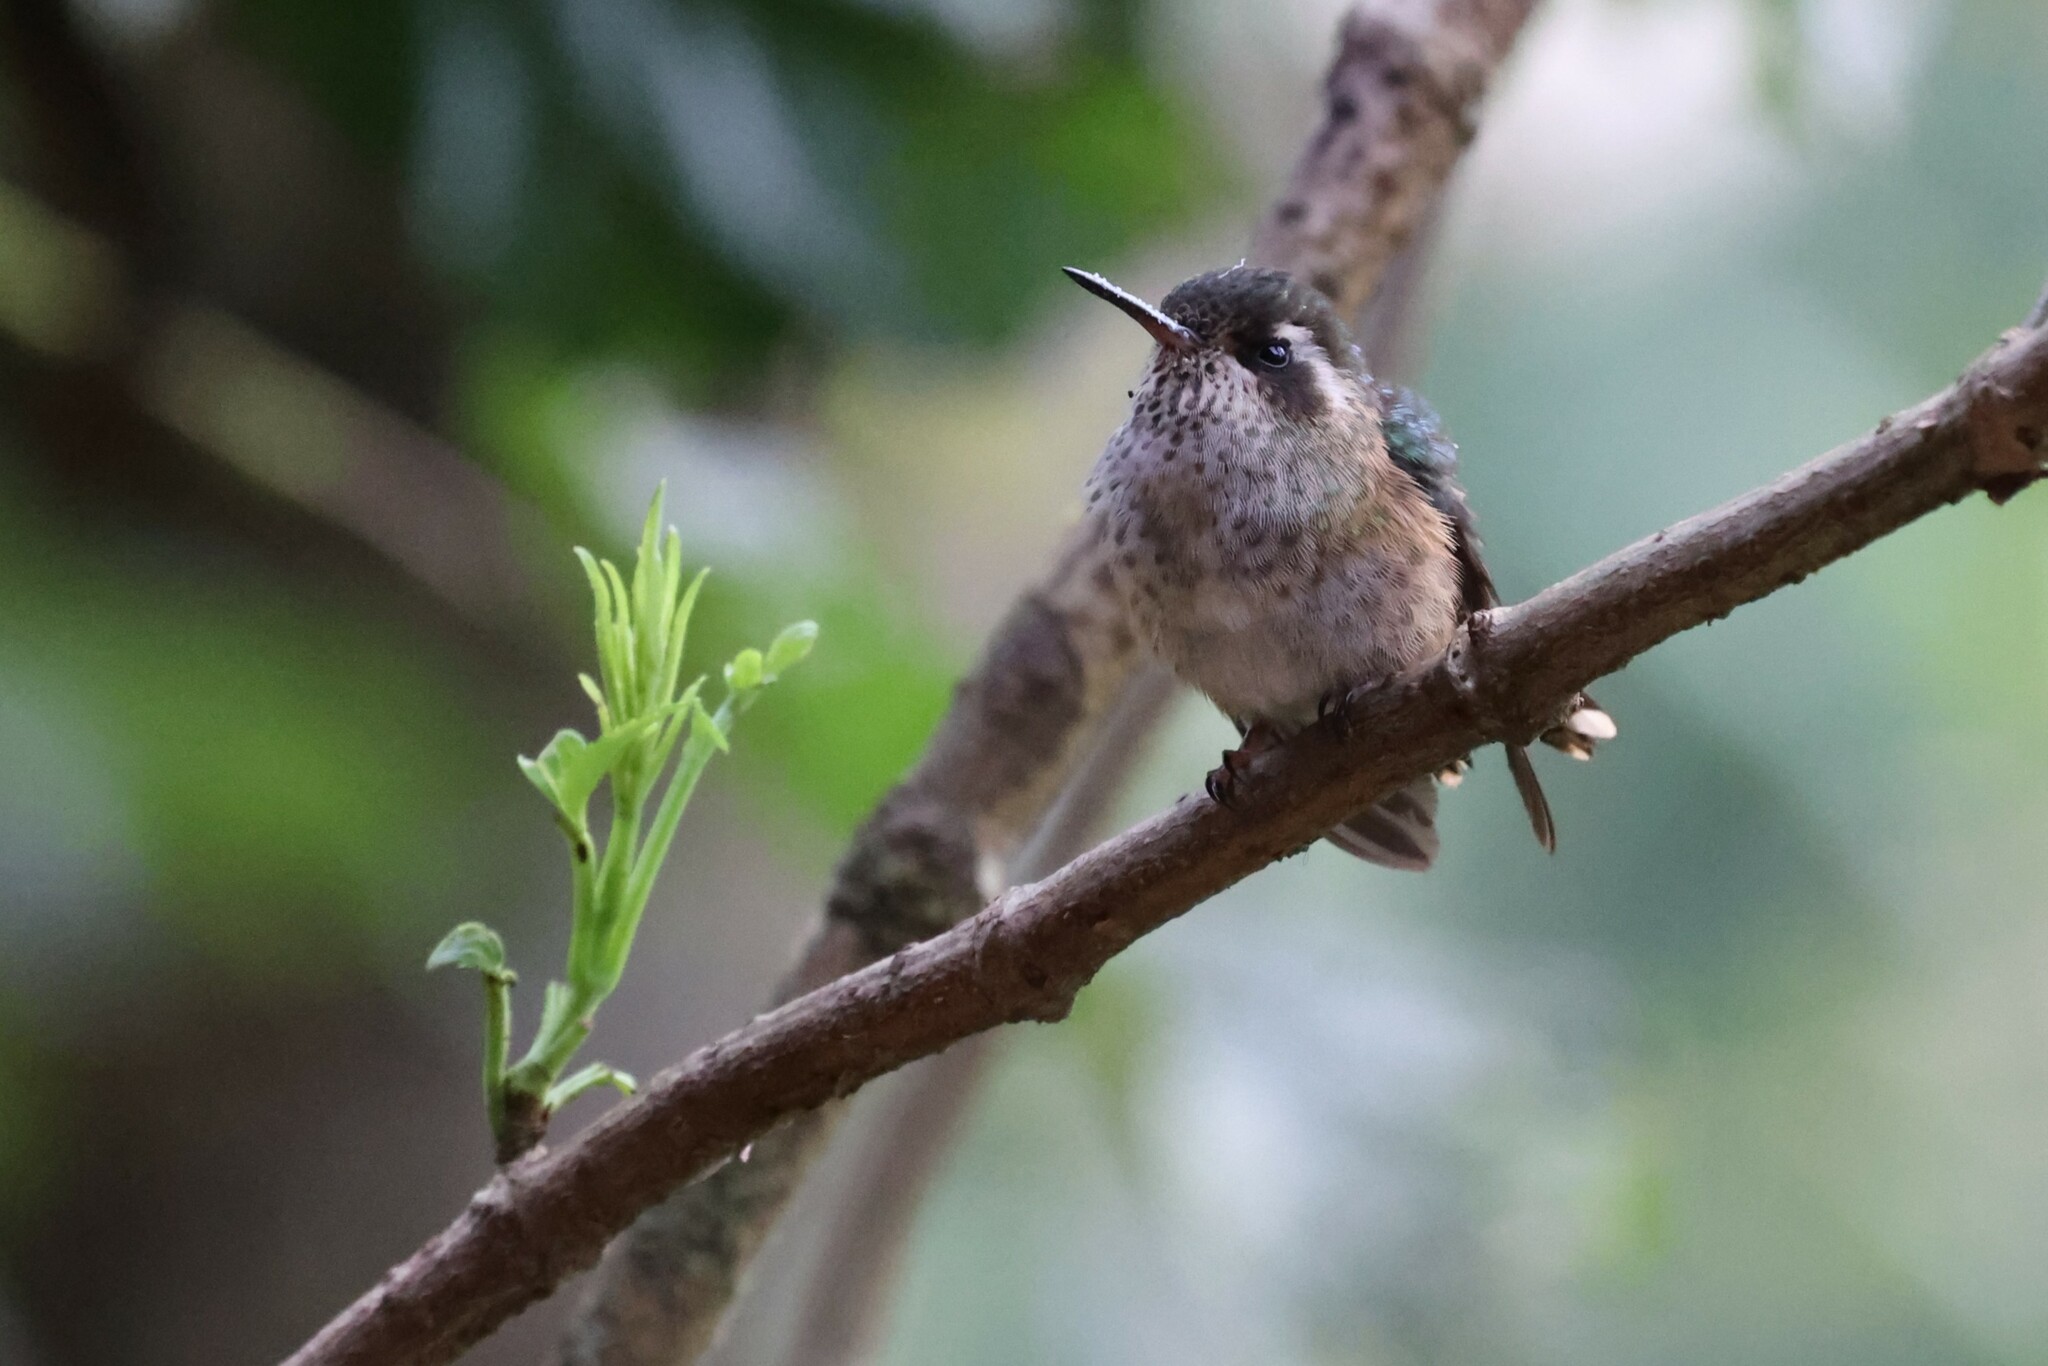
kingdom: Animalia
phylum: Chordata
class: Aves
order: Apodiformes
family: Trochilidae
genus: Adelomyia
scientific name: Adelomyia melanogenys
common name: Speckled hummingbird
